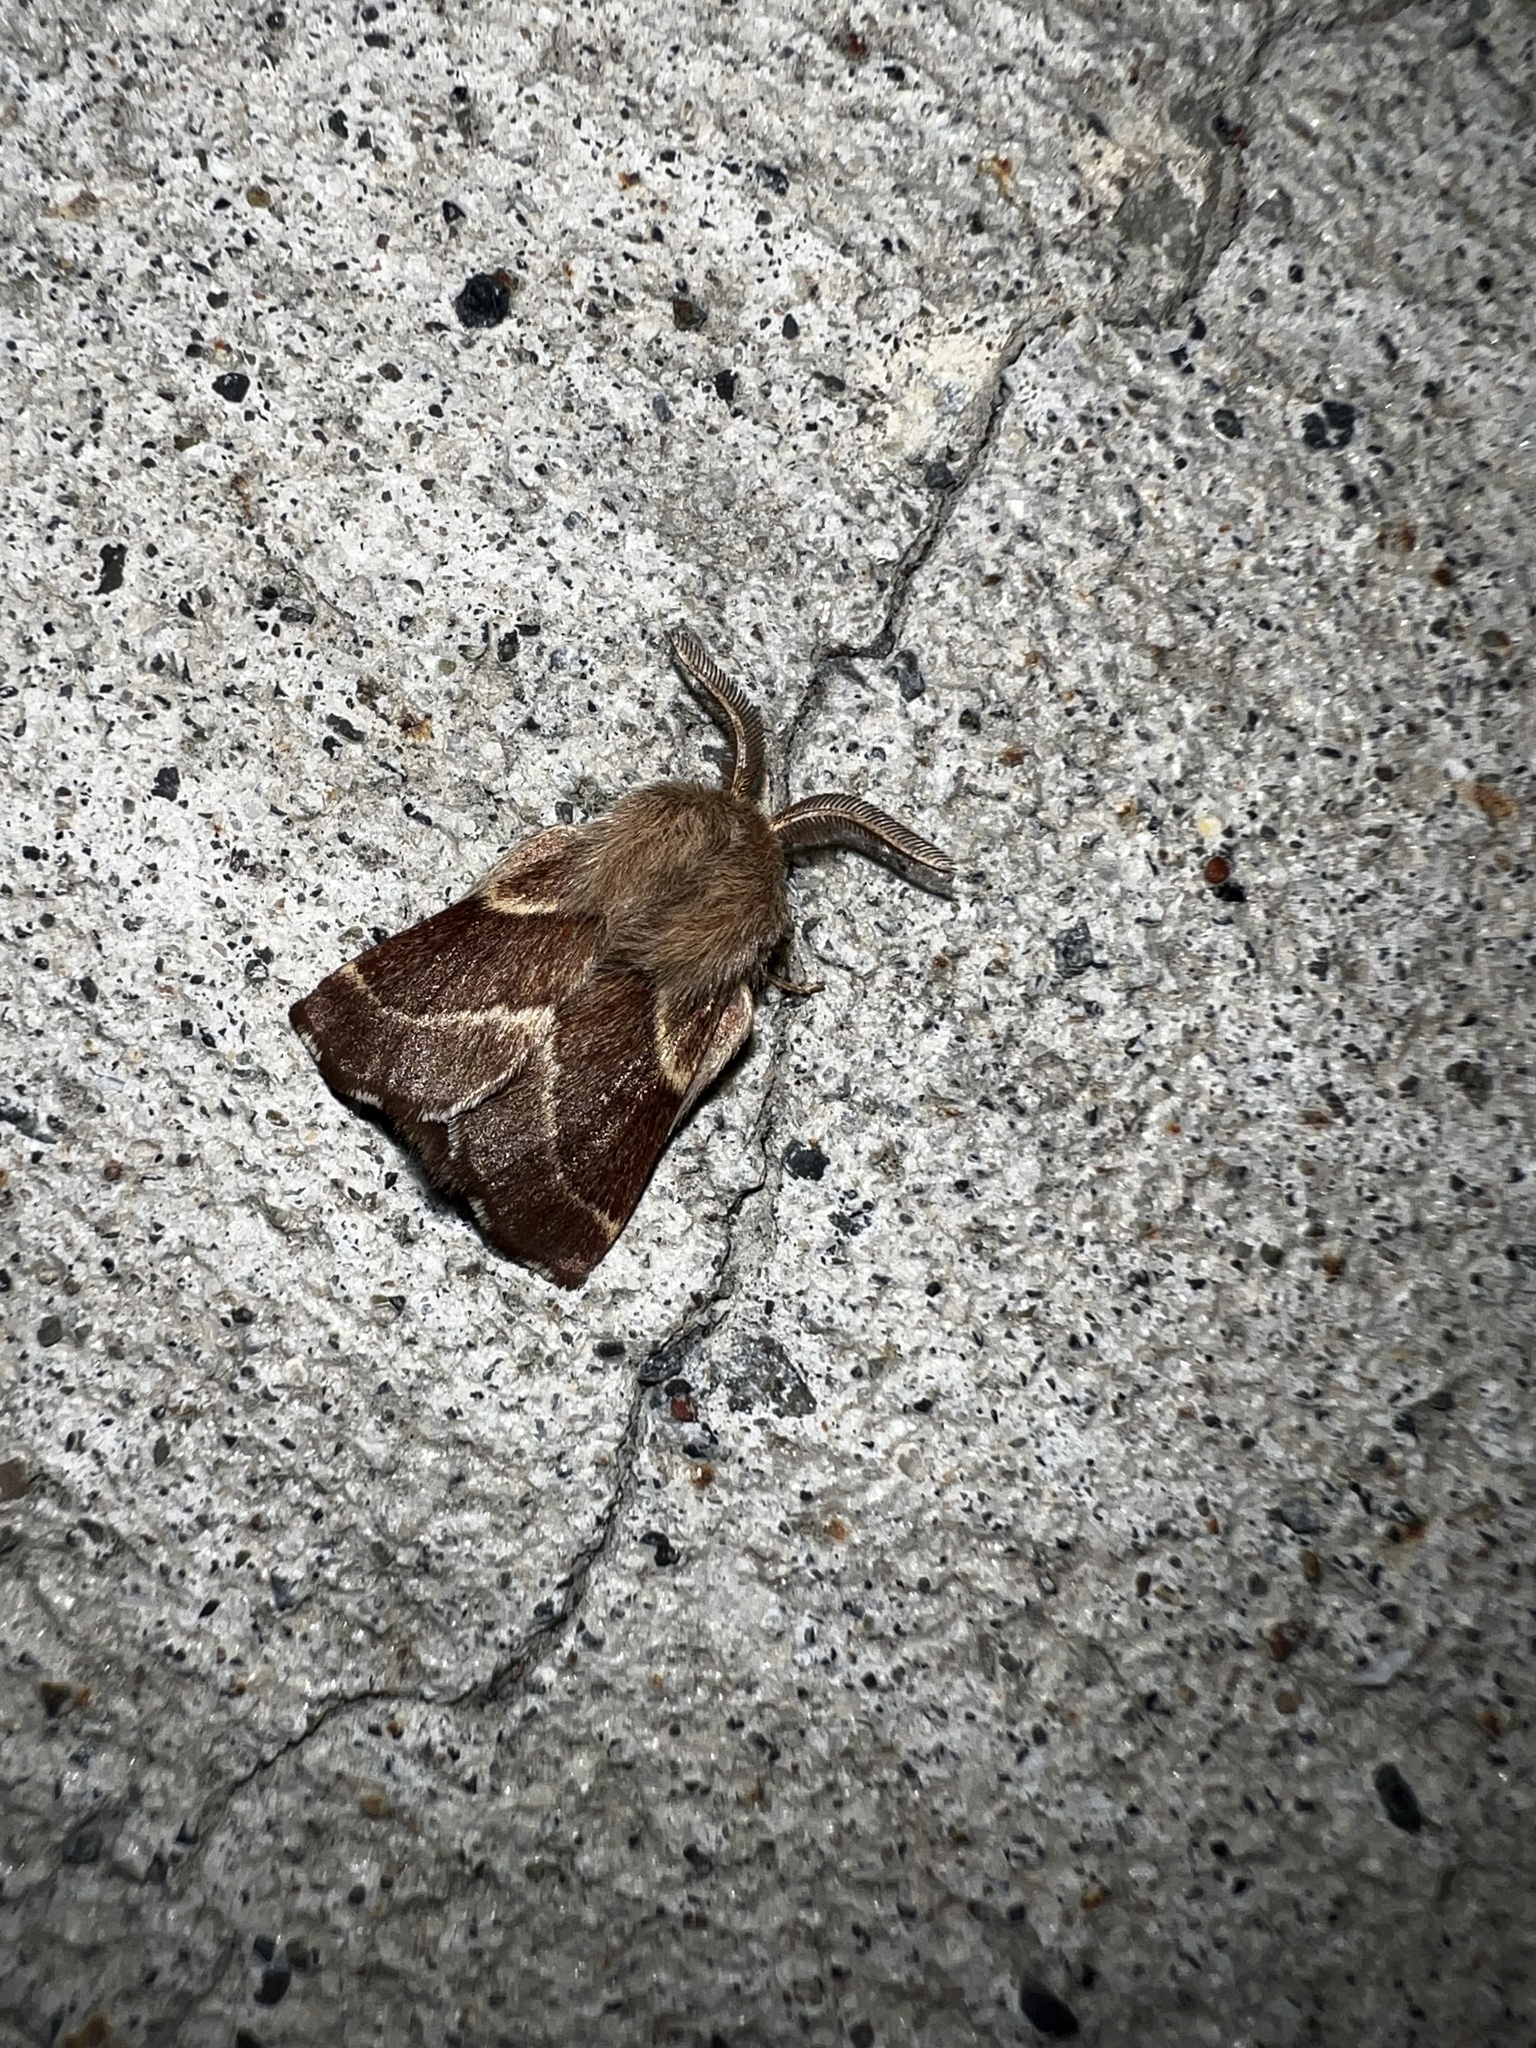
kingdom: Animalia
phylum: Arthropoda
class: Insecta
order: Lepidoptera
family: Lasiocampidae
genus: Malacosoma
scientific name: Malacosoma californica
